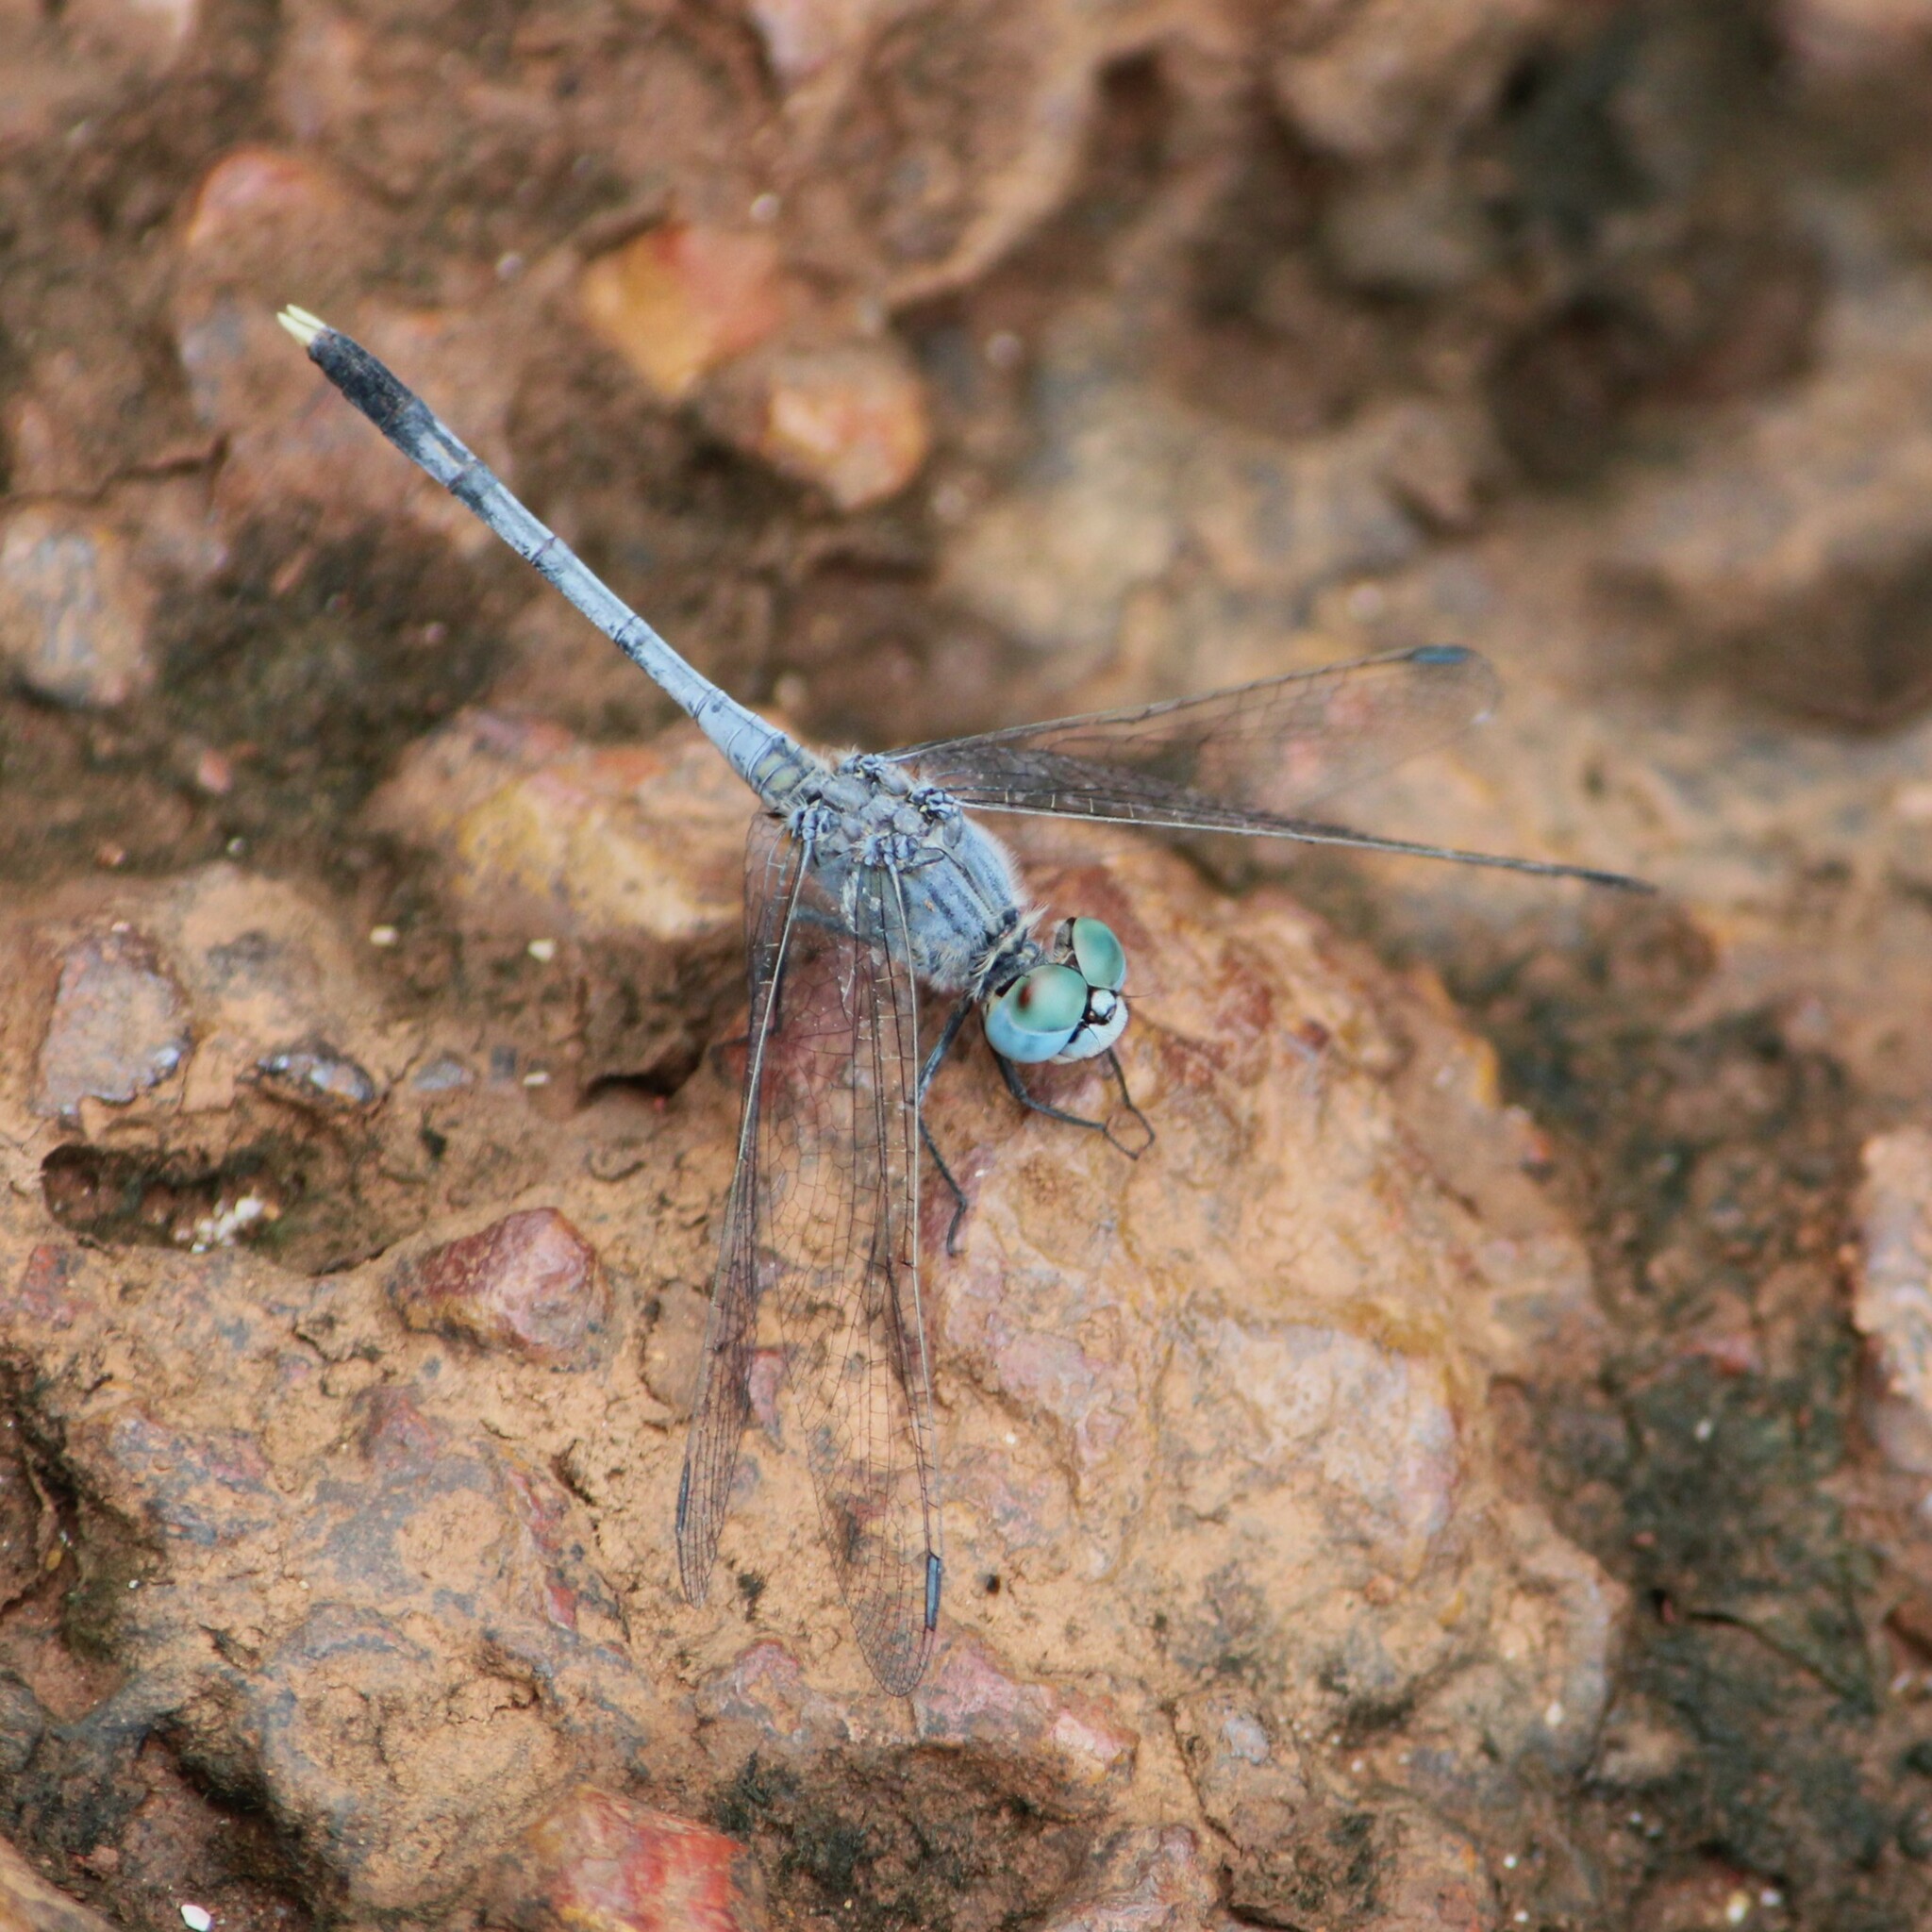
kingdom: Animalia
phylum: Arthropoda
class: Insecta
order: Odonata
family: Libellulidae
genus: Diplacodes
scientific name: Diplacodes trivialis
